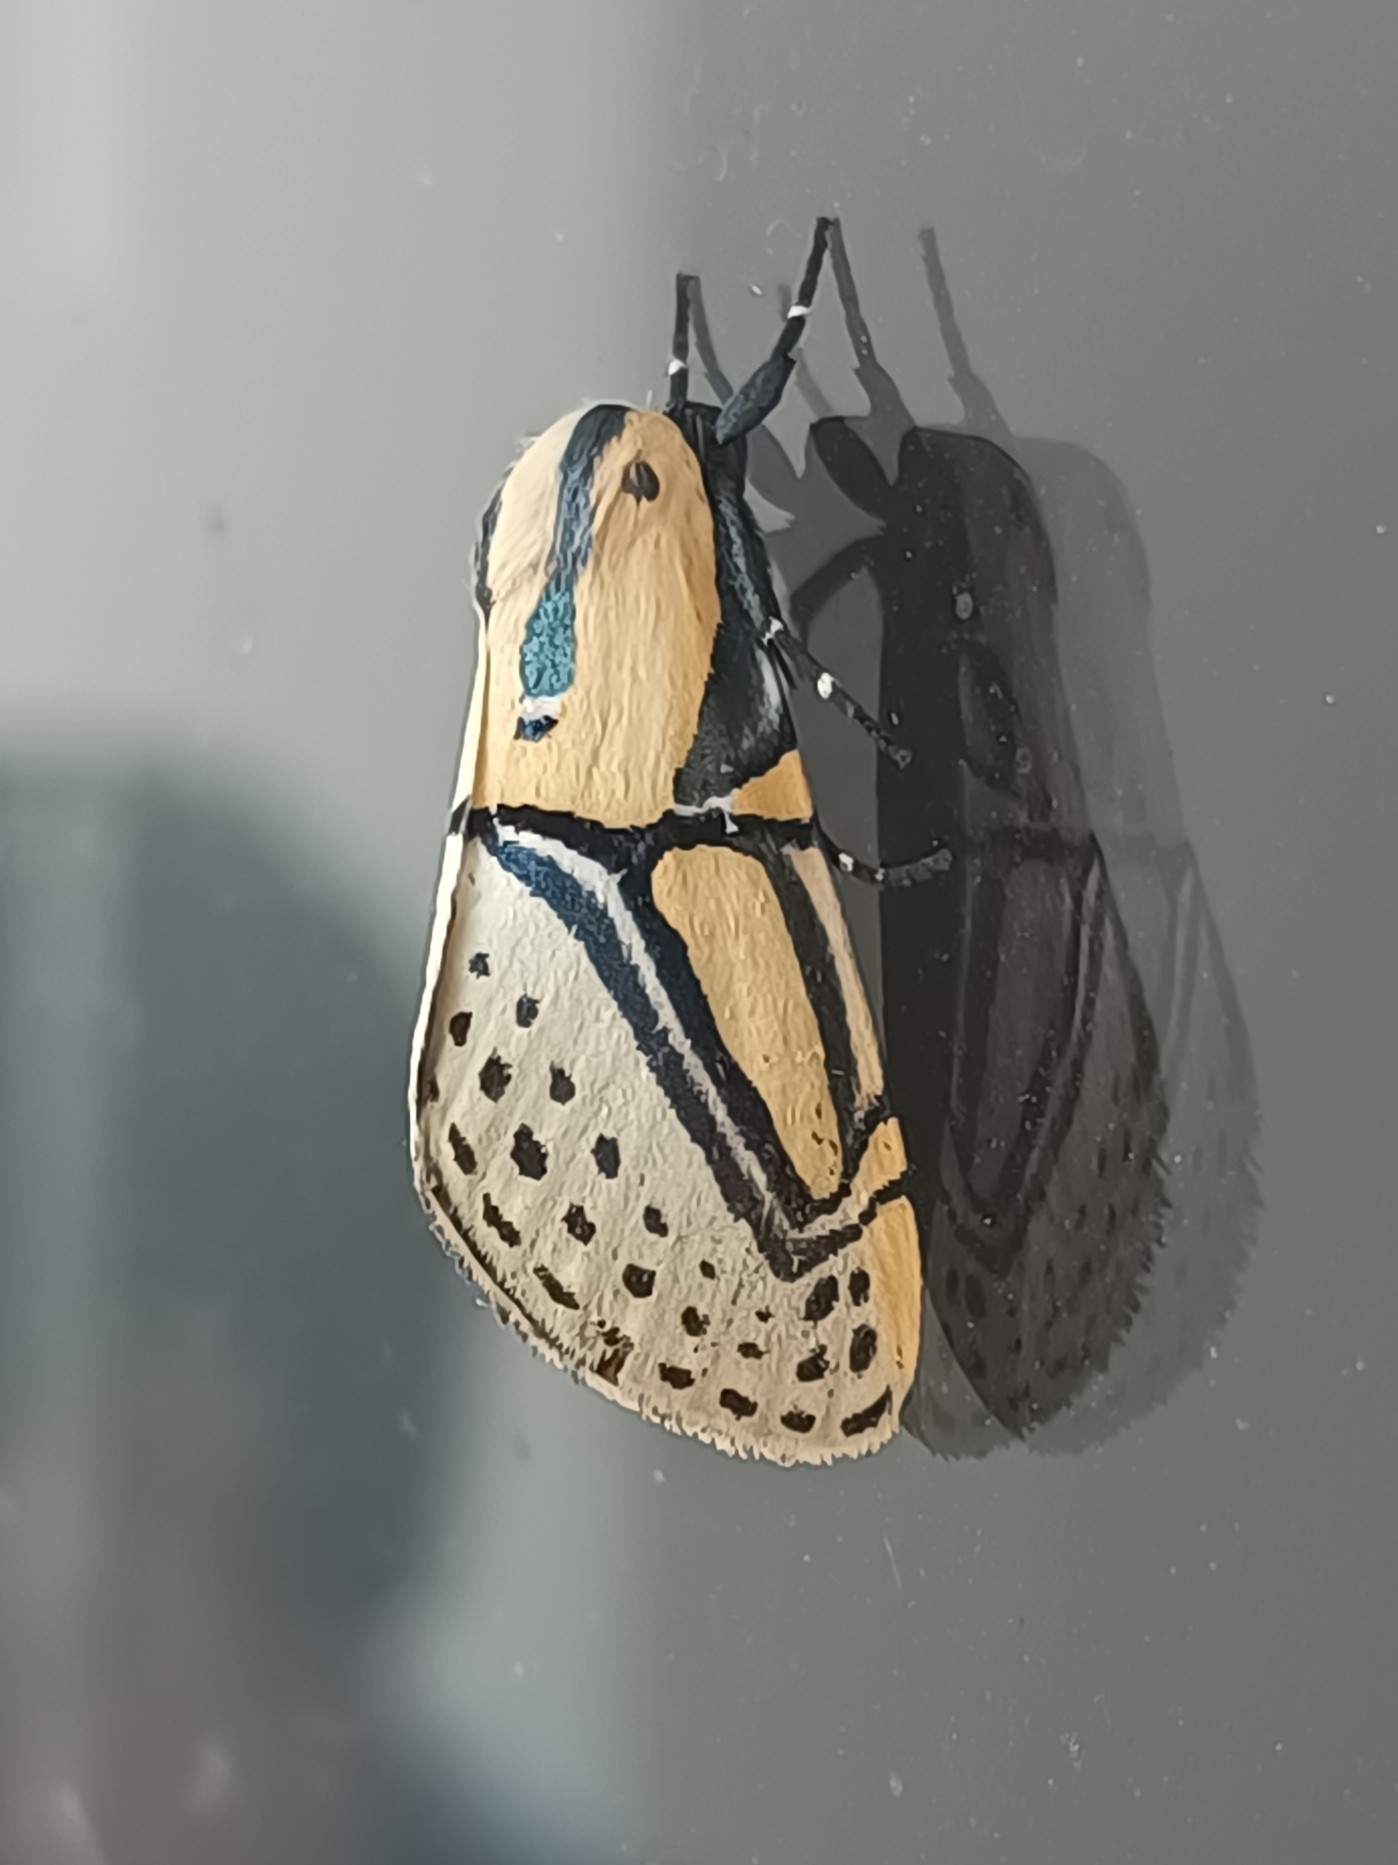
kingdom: Animalia
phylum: Arthropoda
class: Insecta
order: Lepidoptera
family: Erebidae
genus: Diphthera
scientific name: Diphthera festiva
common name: Hieroglyphic moth
